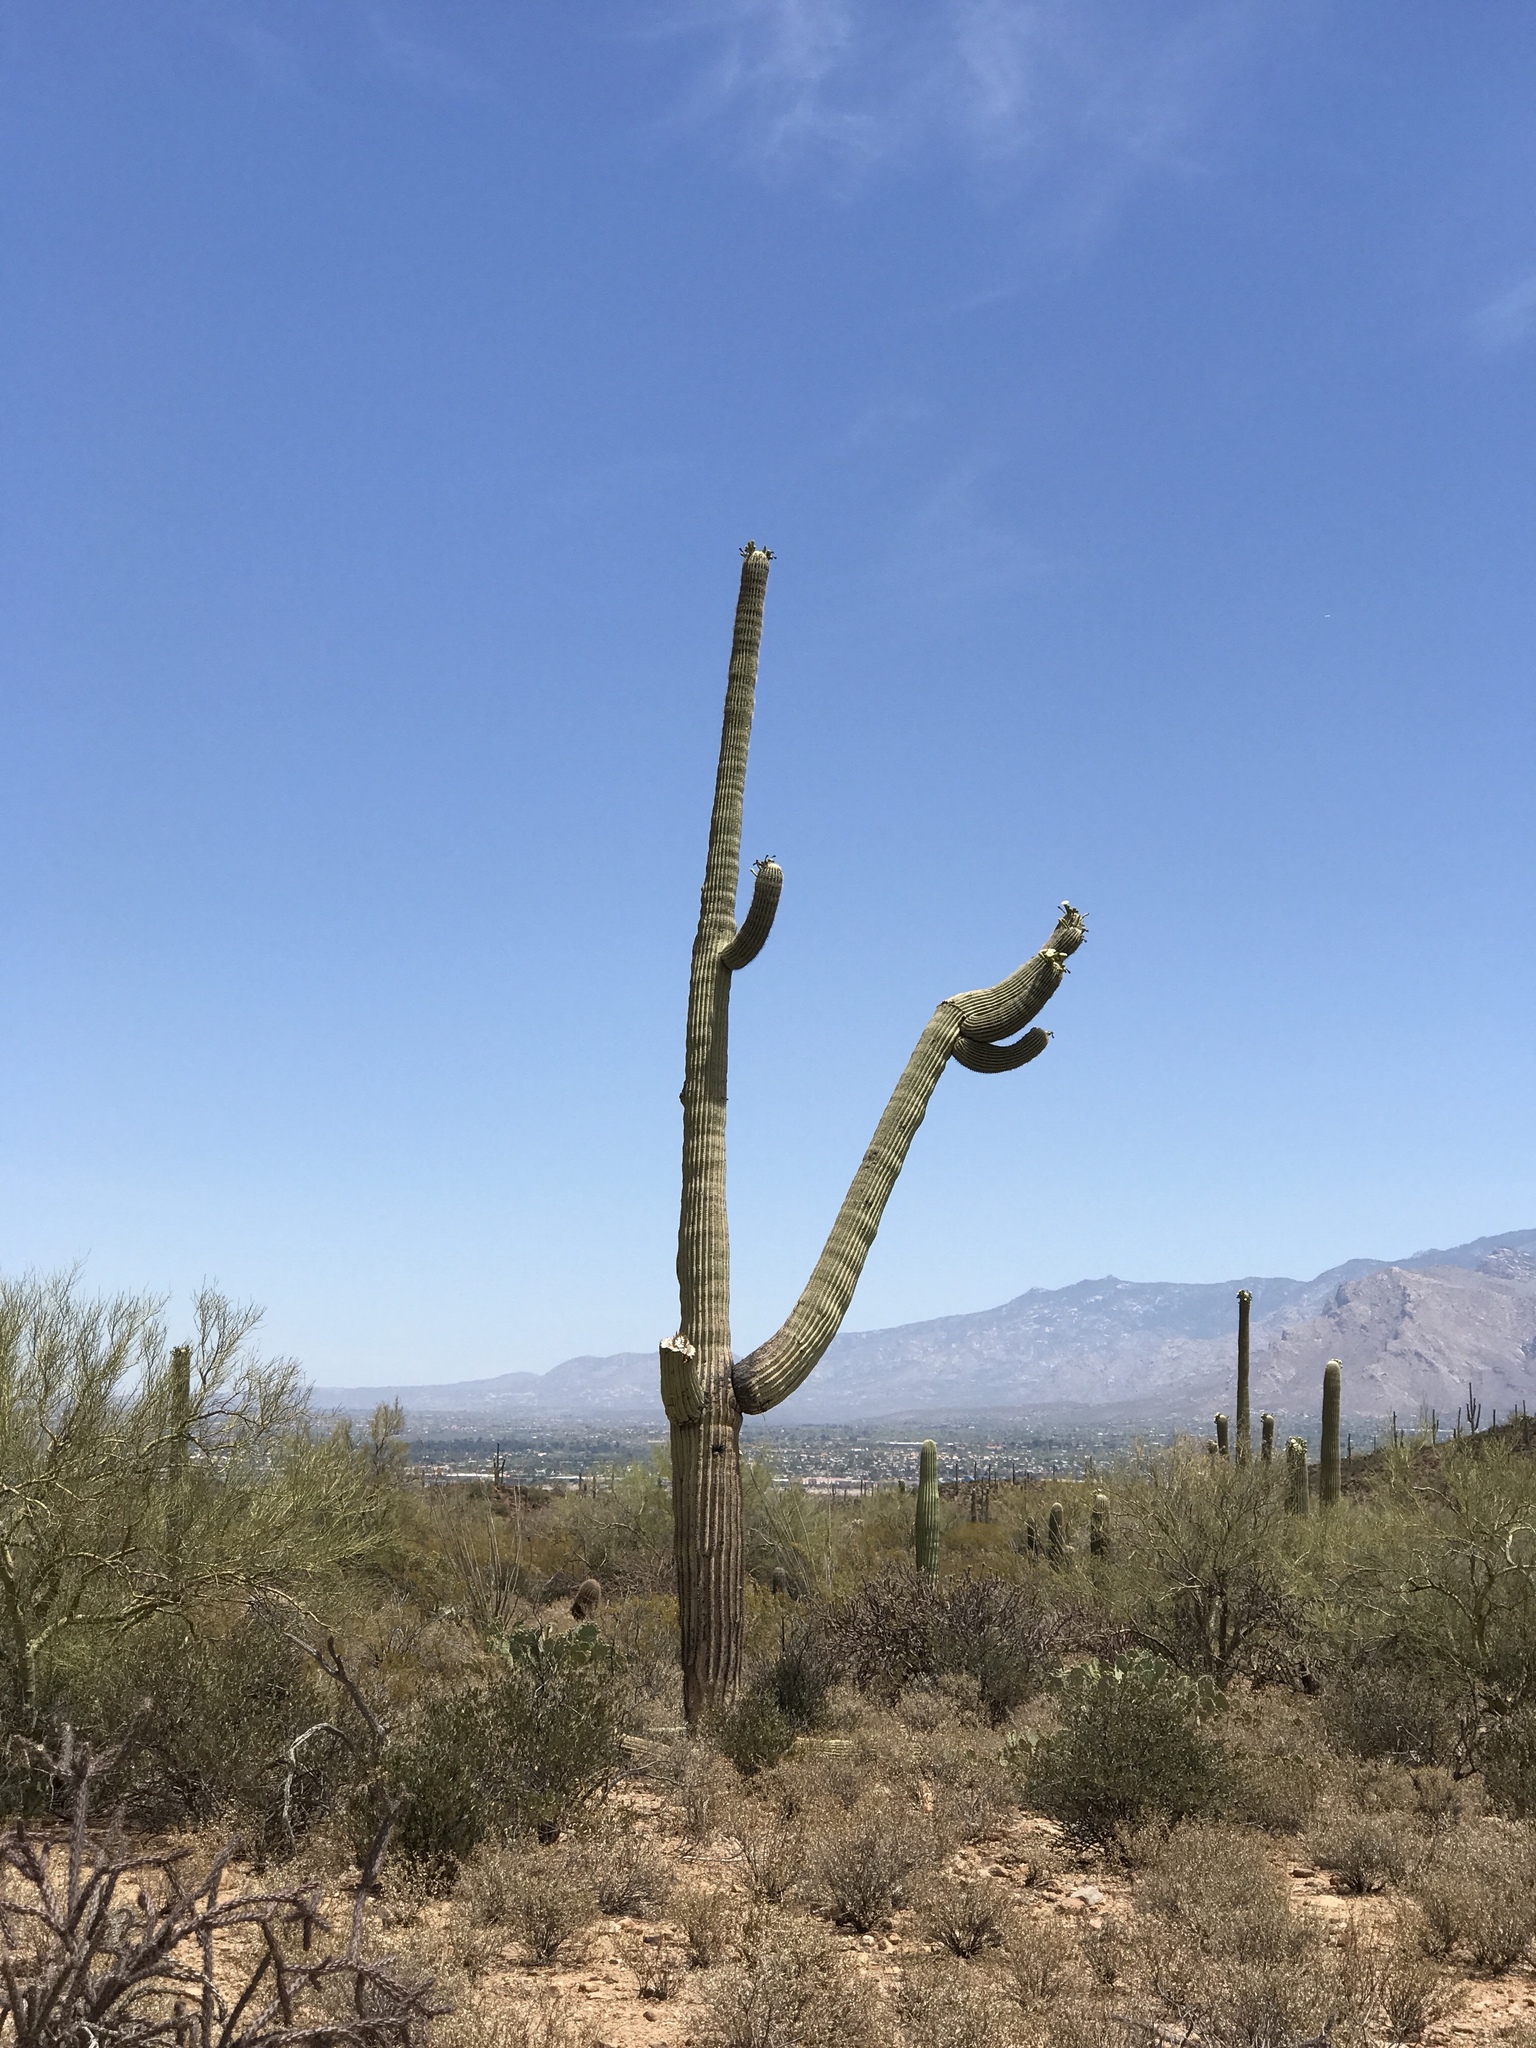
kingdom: Plantae
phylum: Tracheophyta
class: Magnoliopsida
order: Caryophyllales
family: Cactaceae
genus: Carnegiea
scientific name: Carnegiea gigantea
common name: Saguaro
